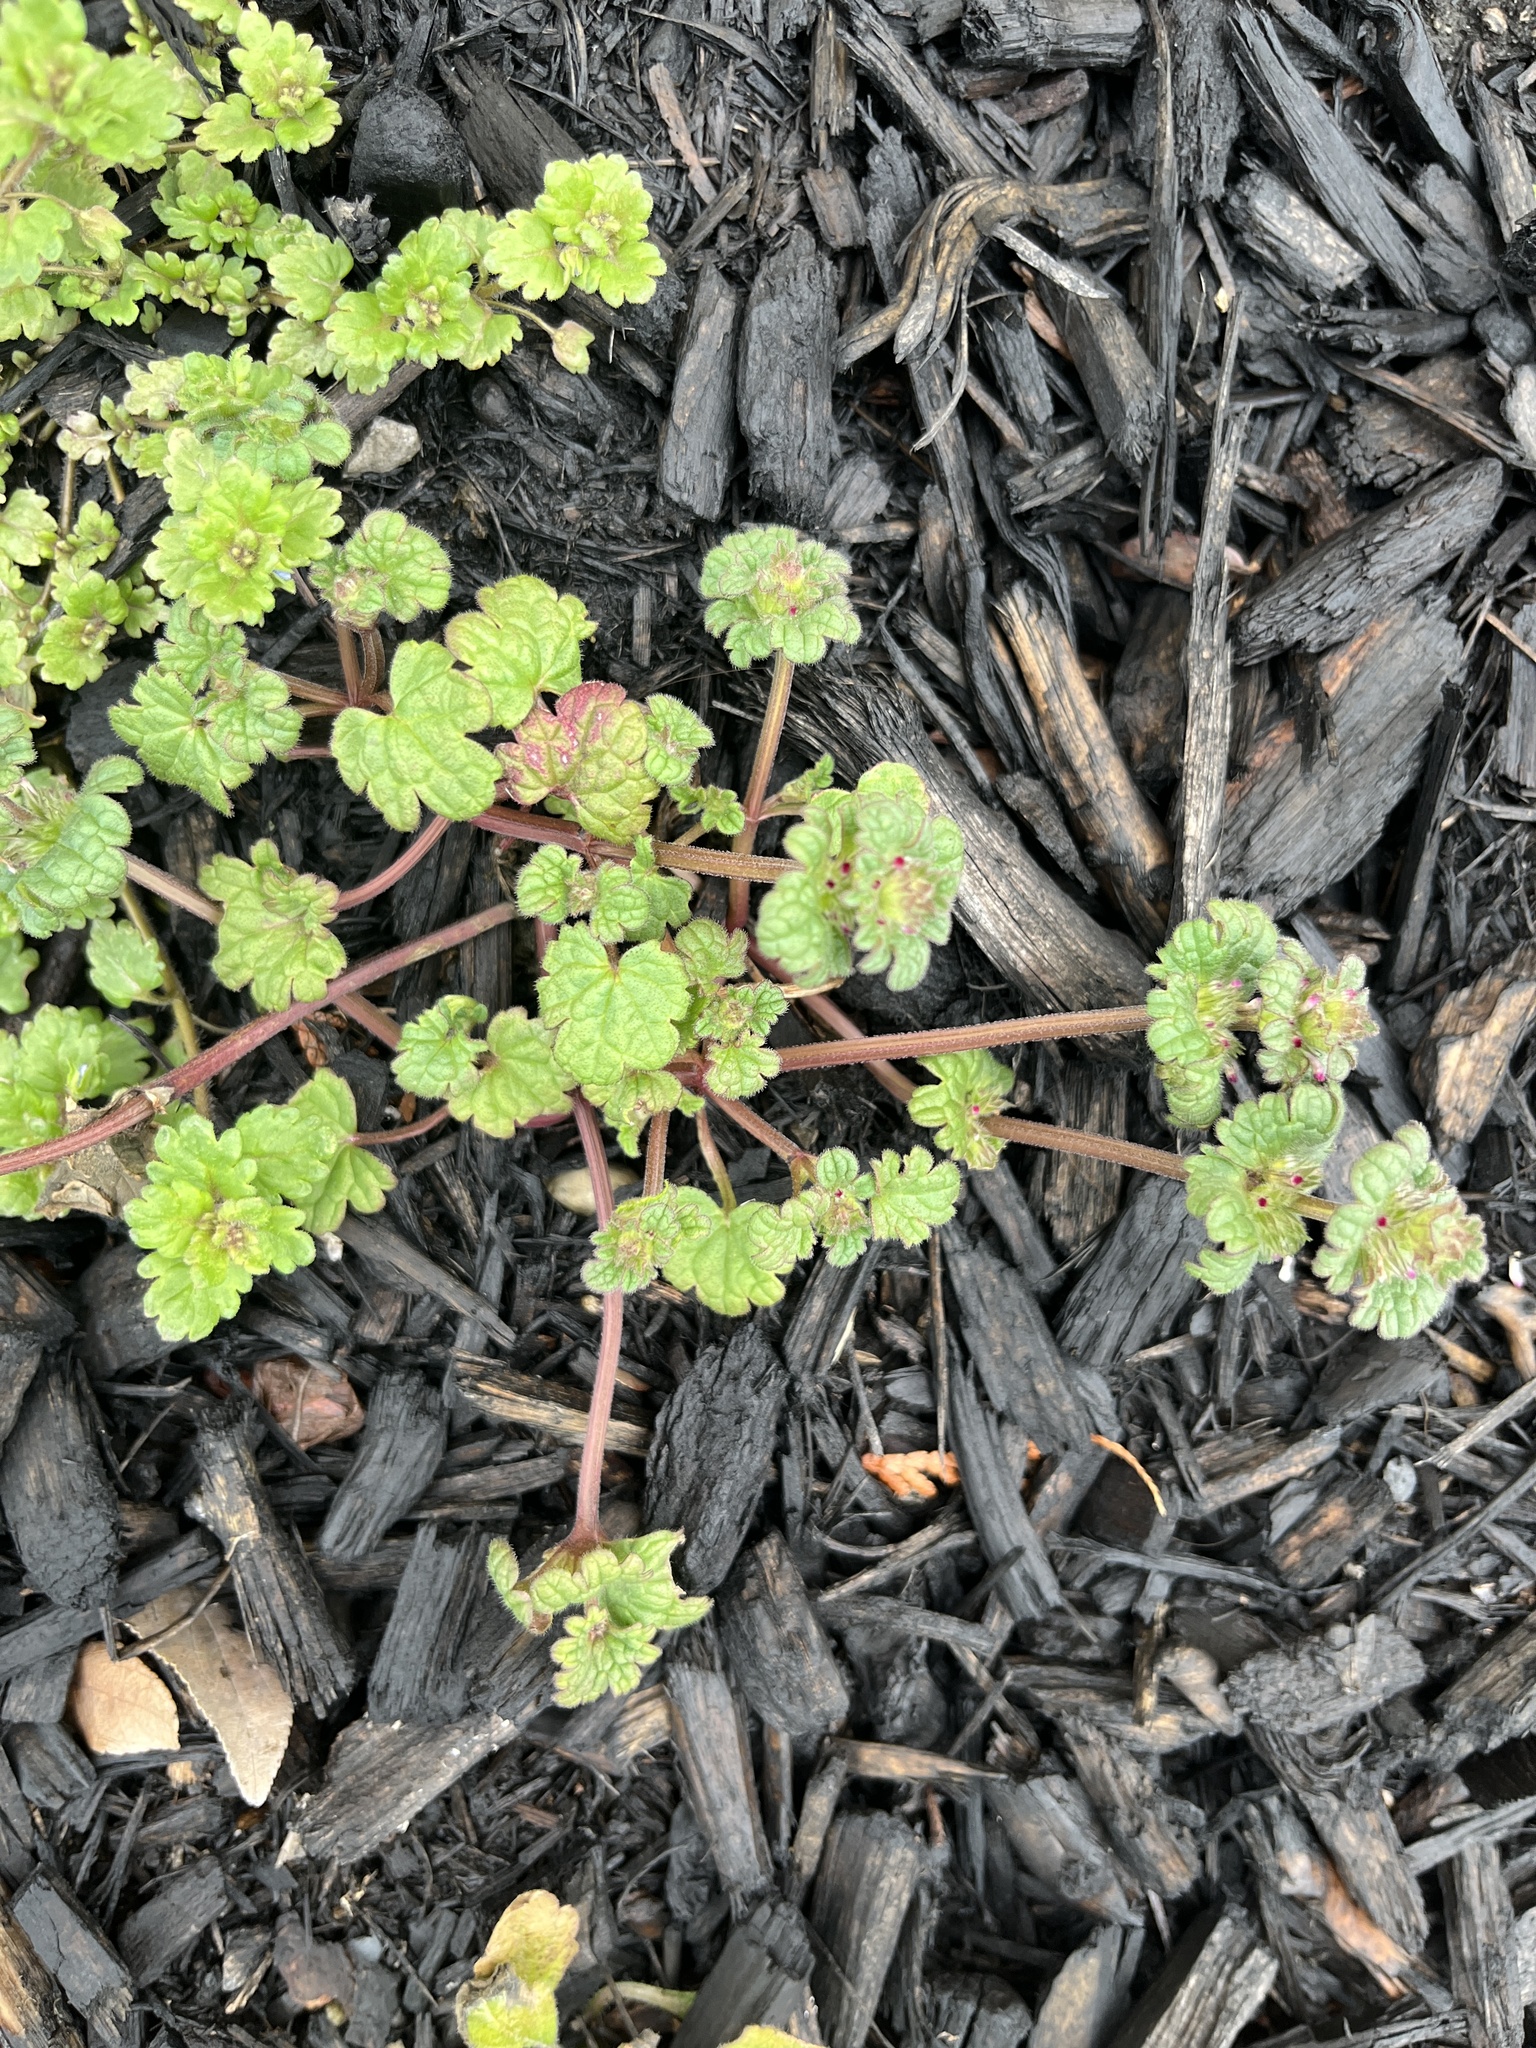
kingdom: Plantae
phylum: Tracheophyta
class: Magnoliopsida
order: Lamiales
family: Lamiaceae
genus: Lamium
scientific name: Lamium amplexicaule
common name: Henbit dead-nettle
